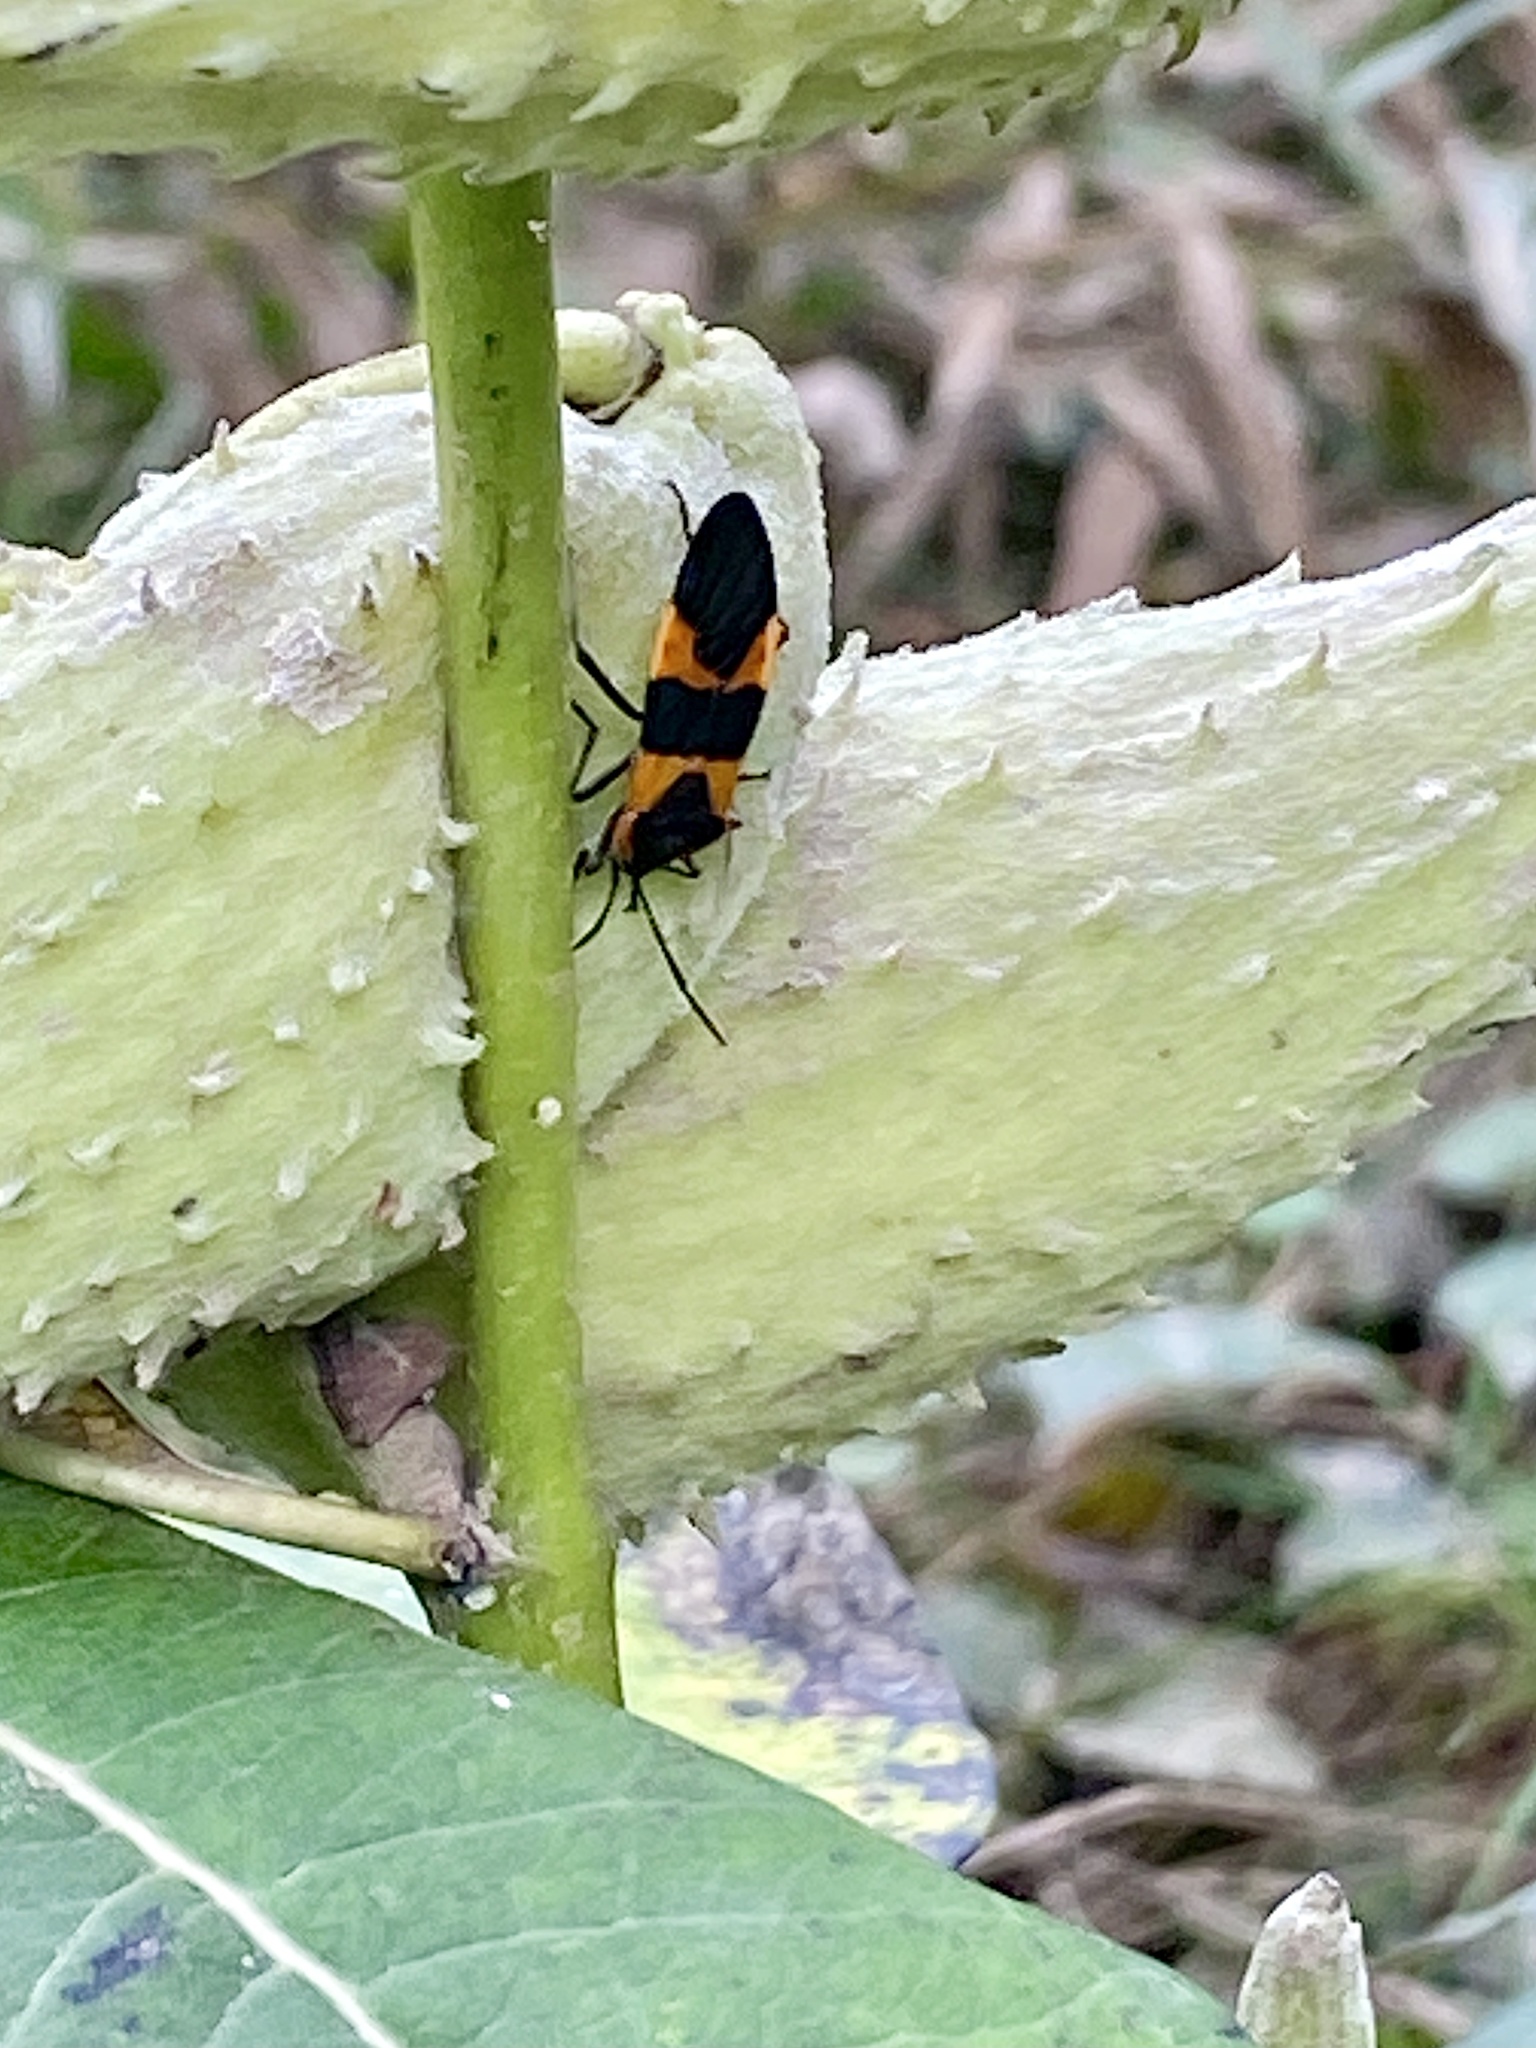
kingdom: Animalia
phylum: Arthropoda
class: Insecta
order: Hemiptera
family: Lygaeidae
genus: Oncopeltus
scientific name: Oncopeltus fasciatus
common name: Large milkweed bug
